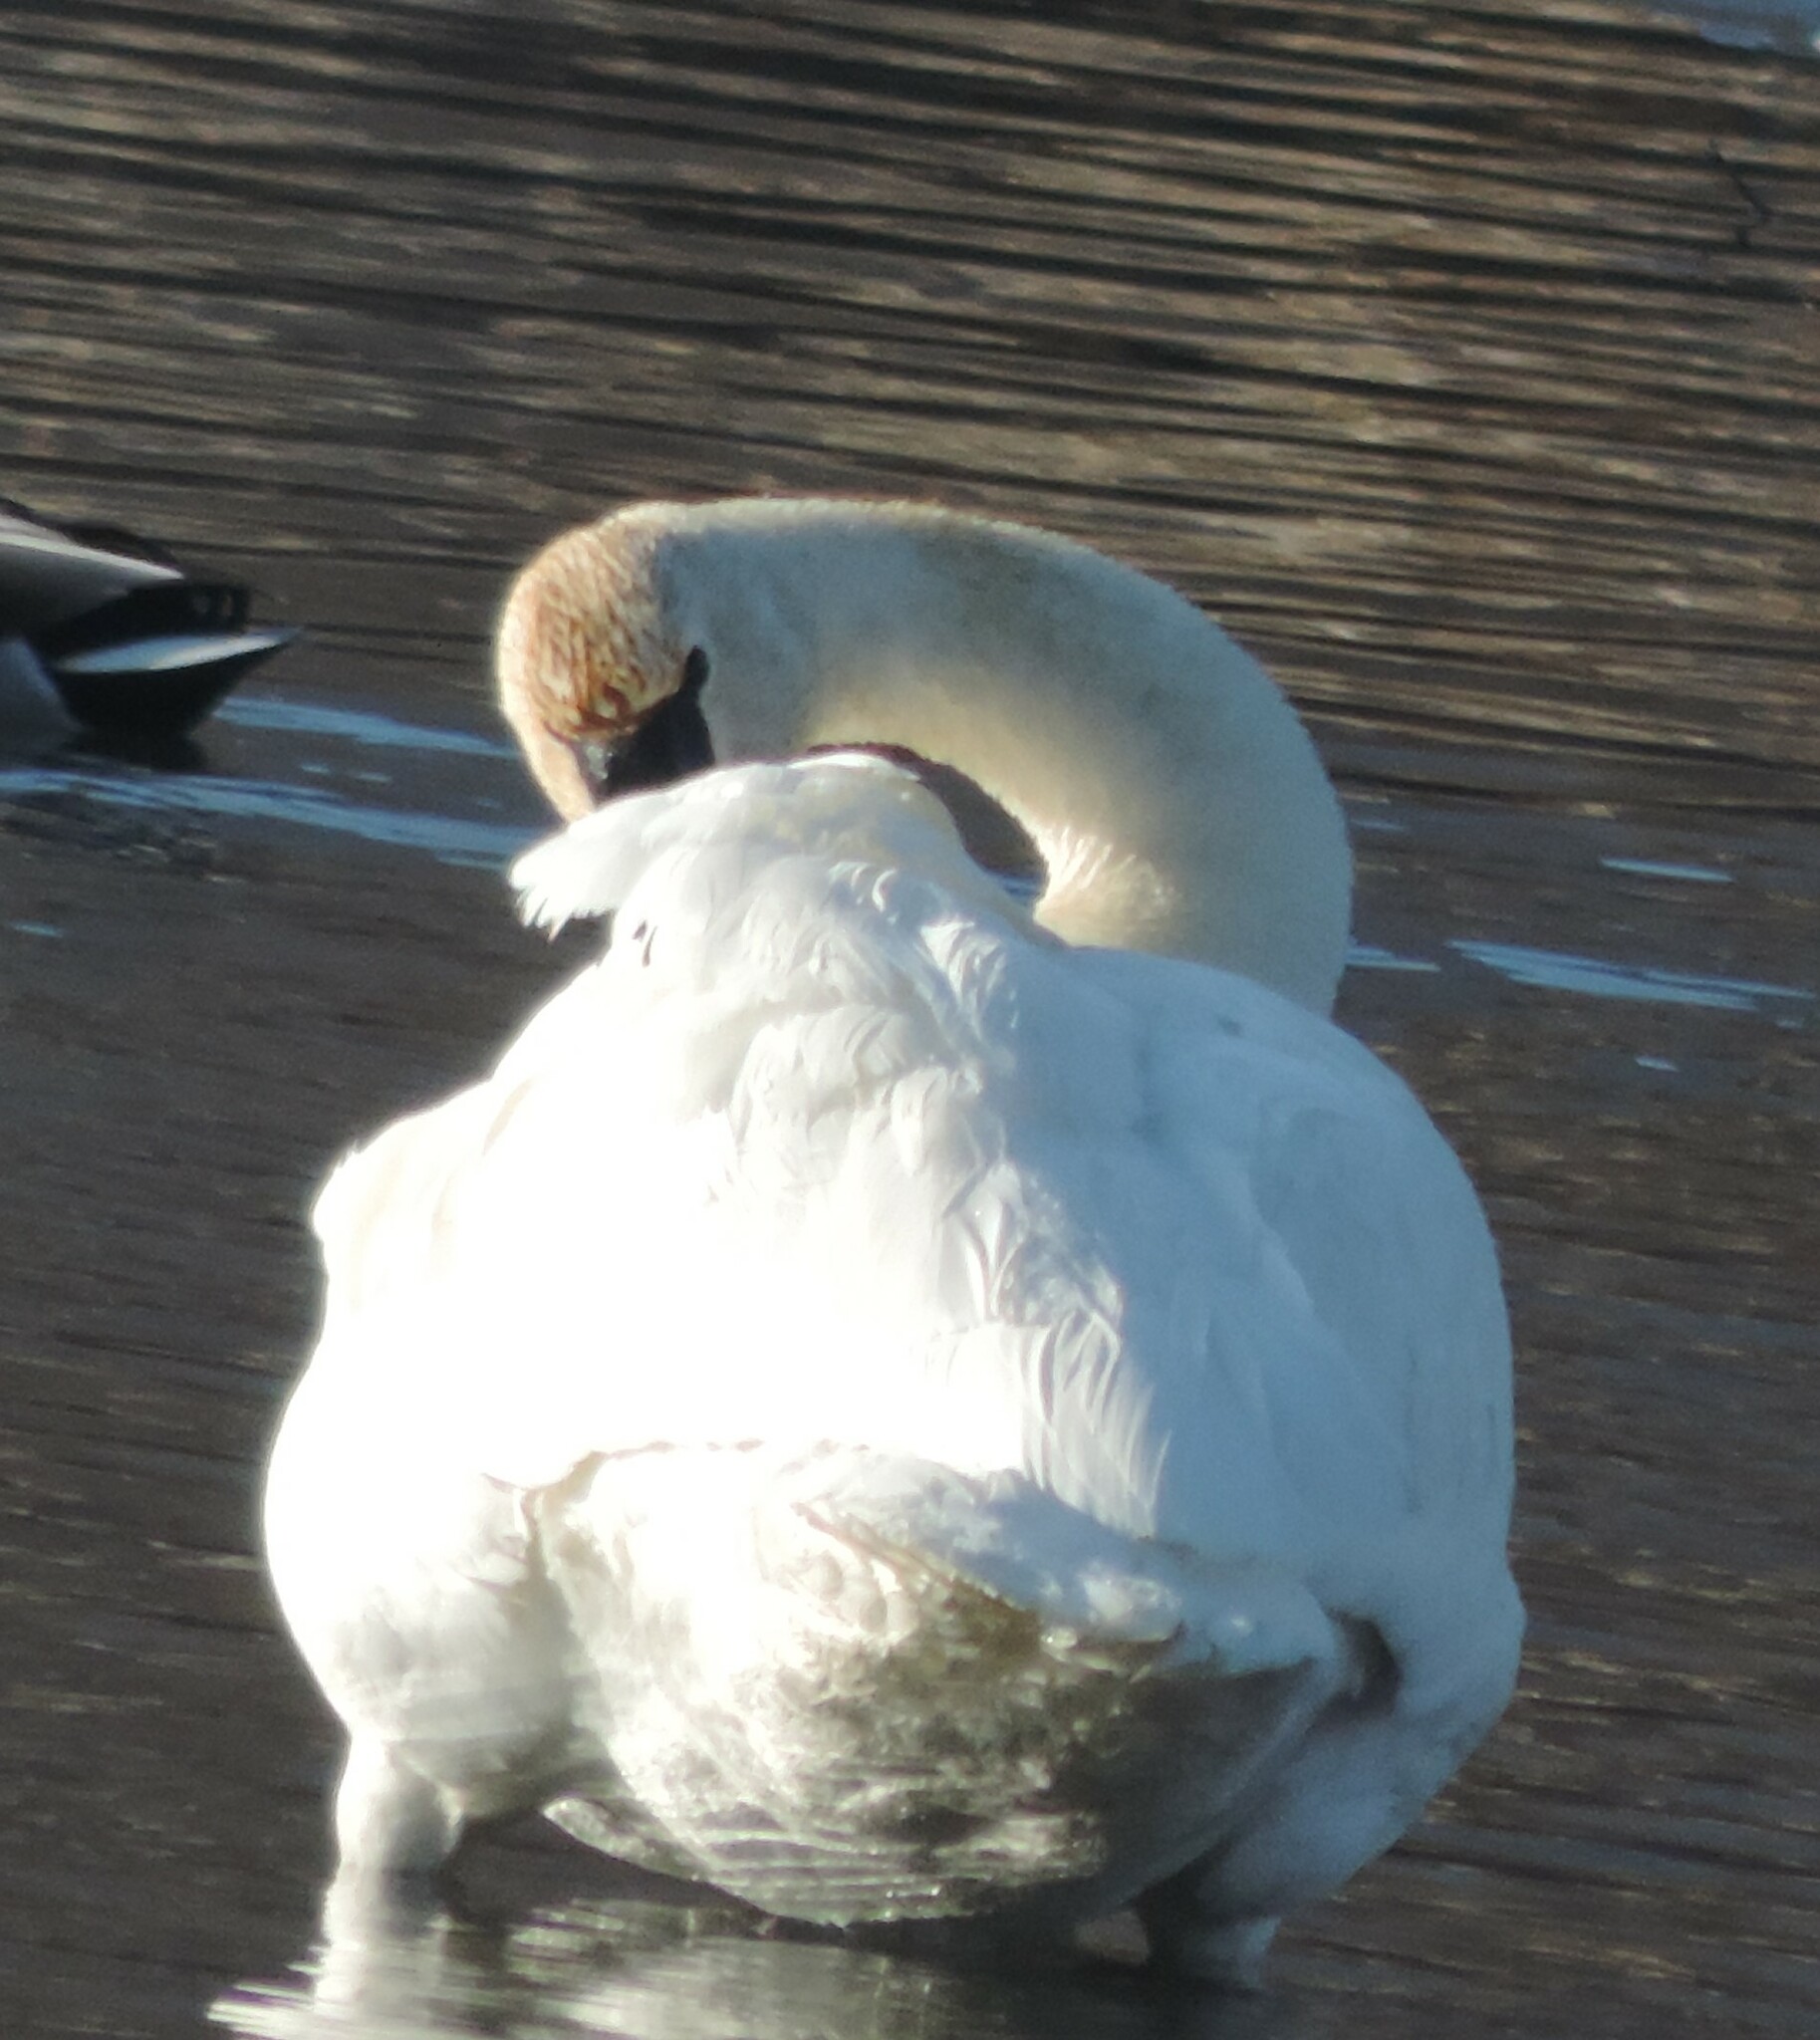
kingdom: Animalia
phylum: Chordata
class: Aves
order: Anseriformes
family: Anatidae
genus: Cygnus
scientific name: Cygnus buccinator
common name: Trumpeter swan
